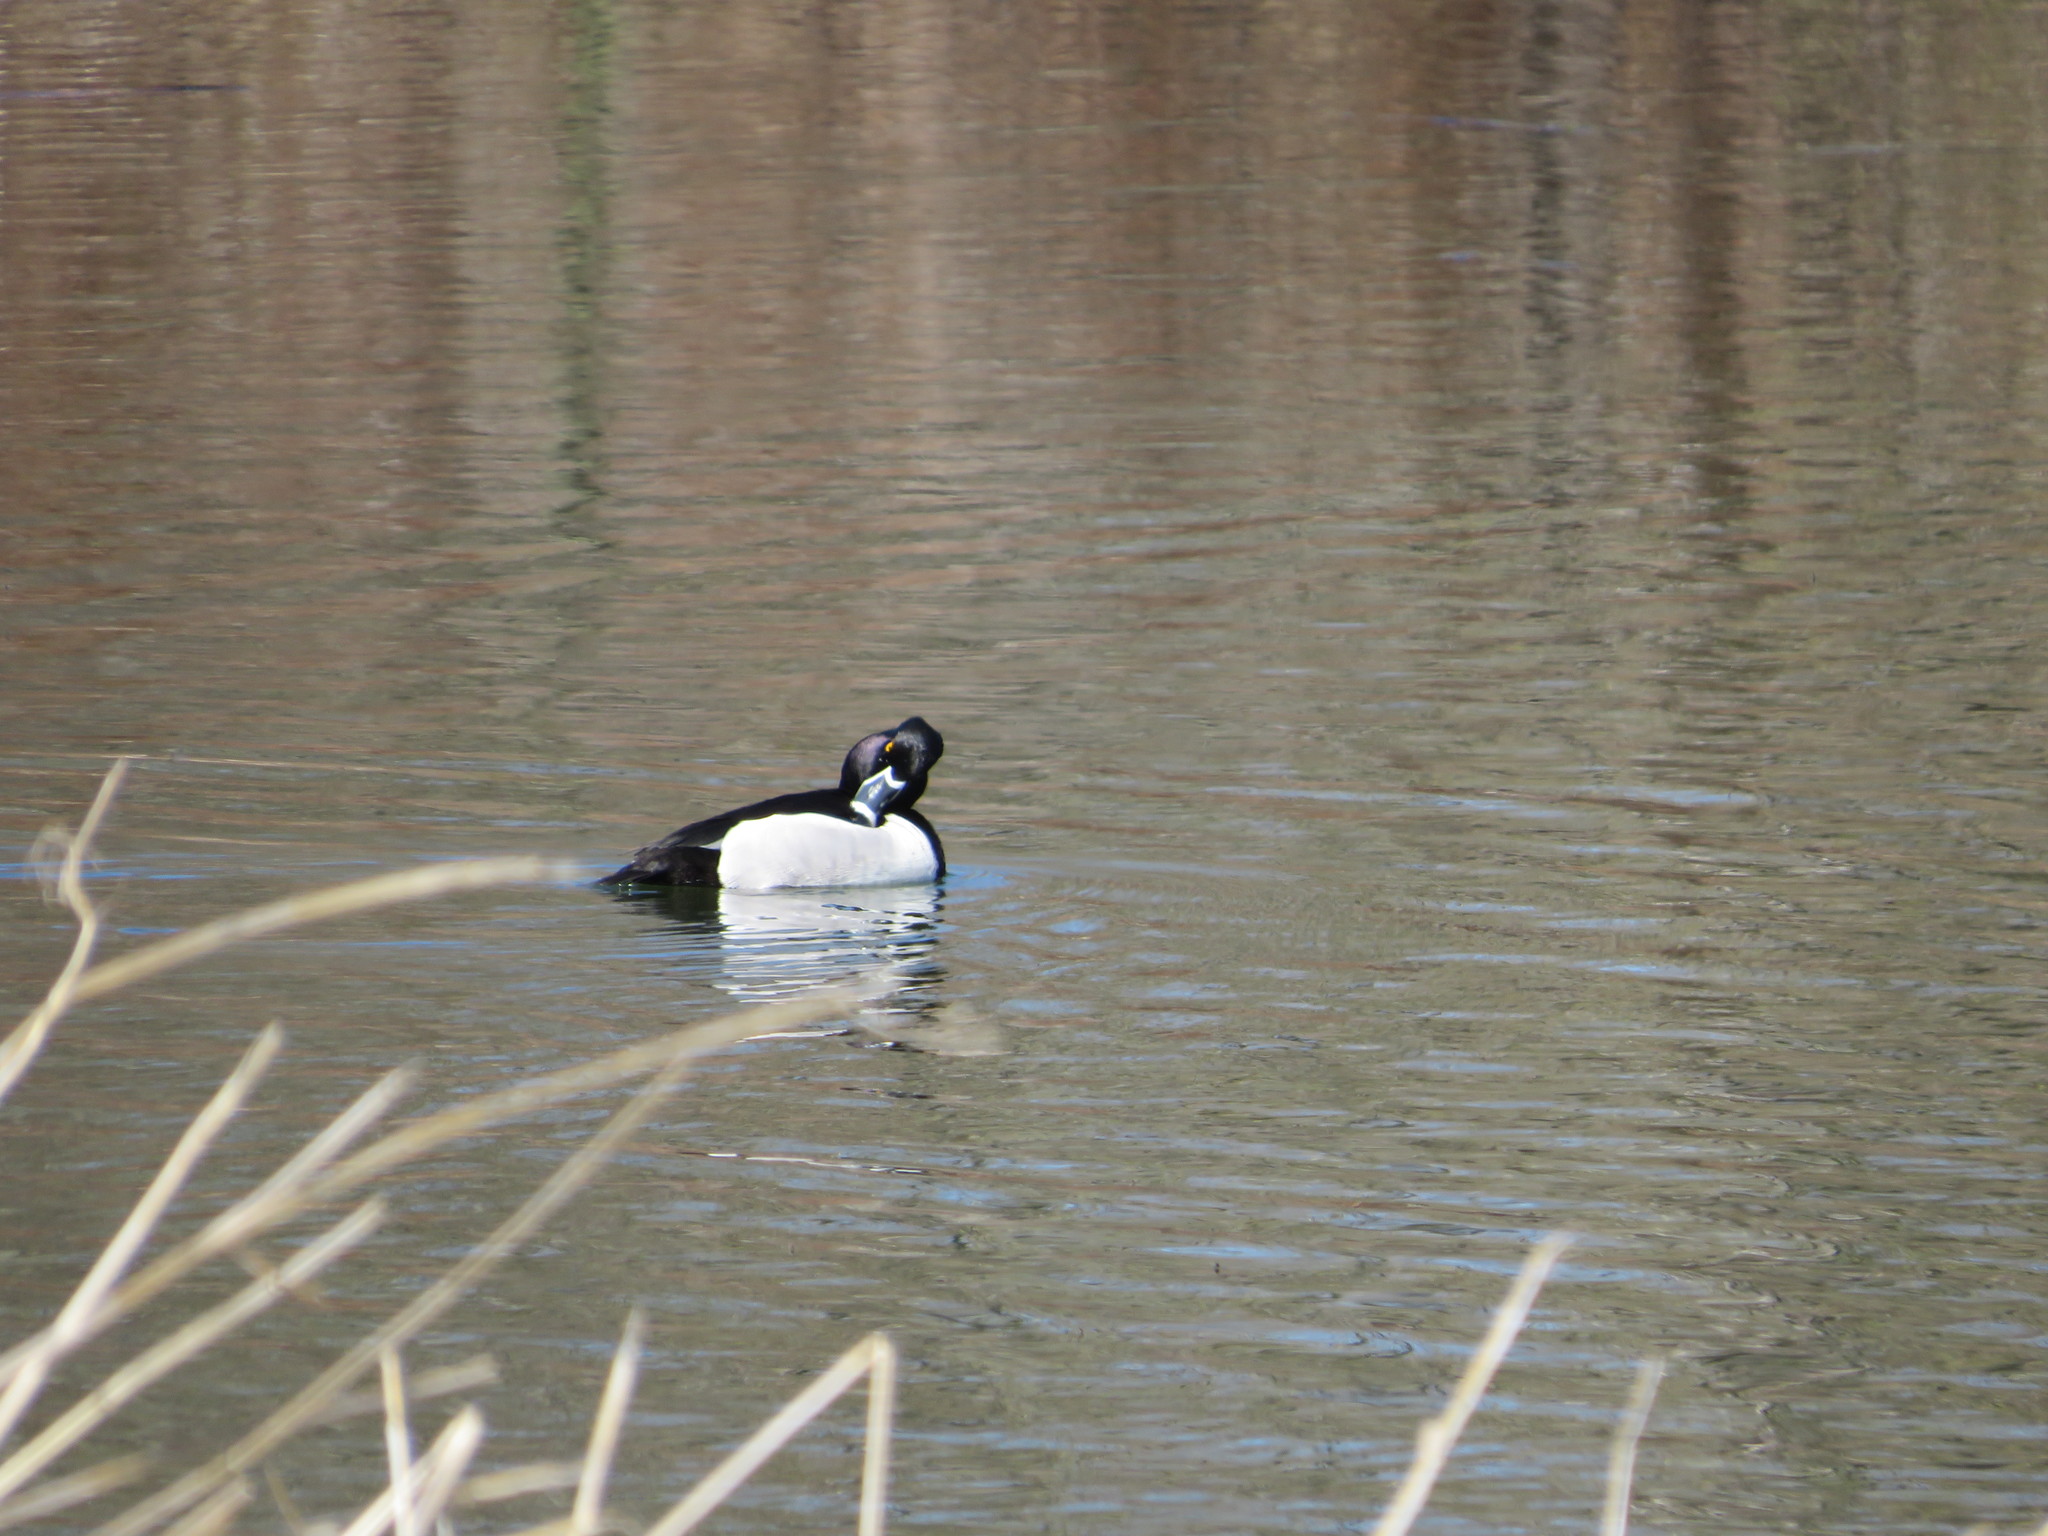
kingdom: Animalia
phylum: Chordata
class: Aves
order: Anseriformes
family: Anatidae
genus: Aythya
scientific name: Aythya collaris
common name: Ring-necked duck
